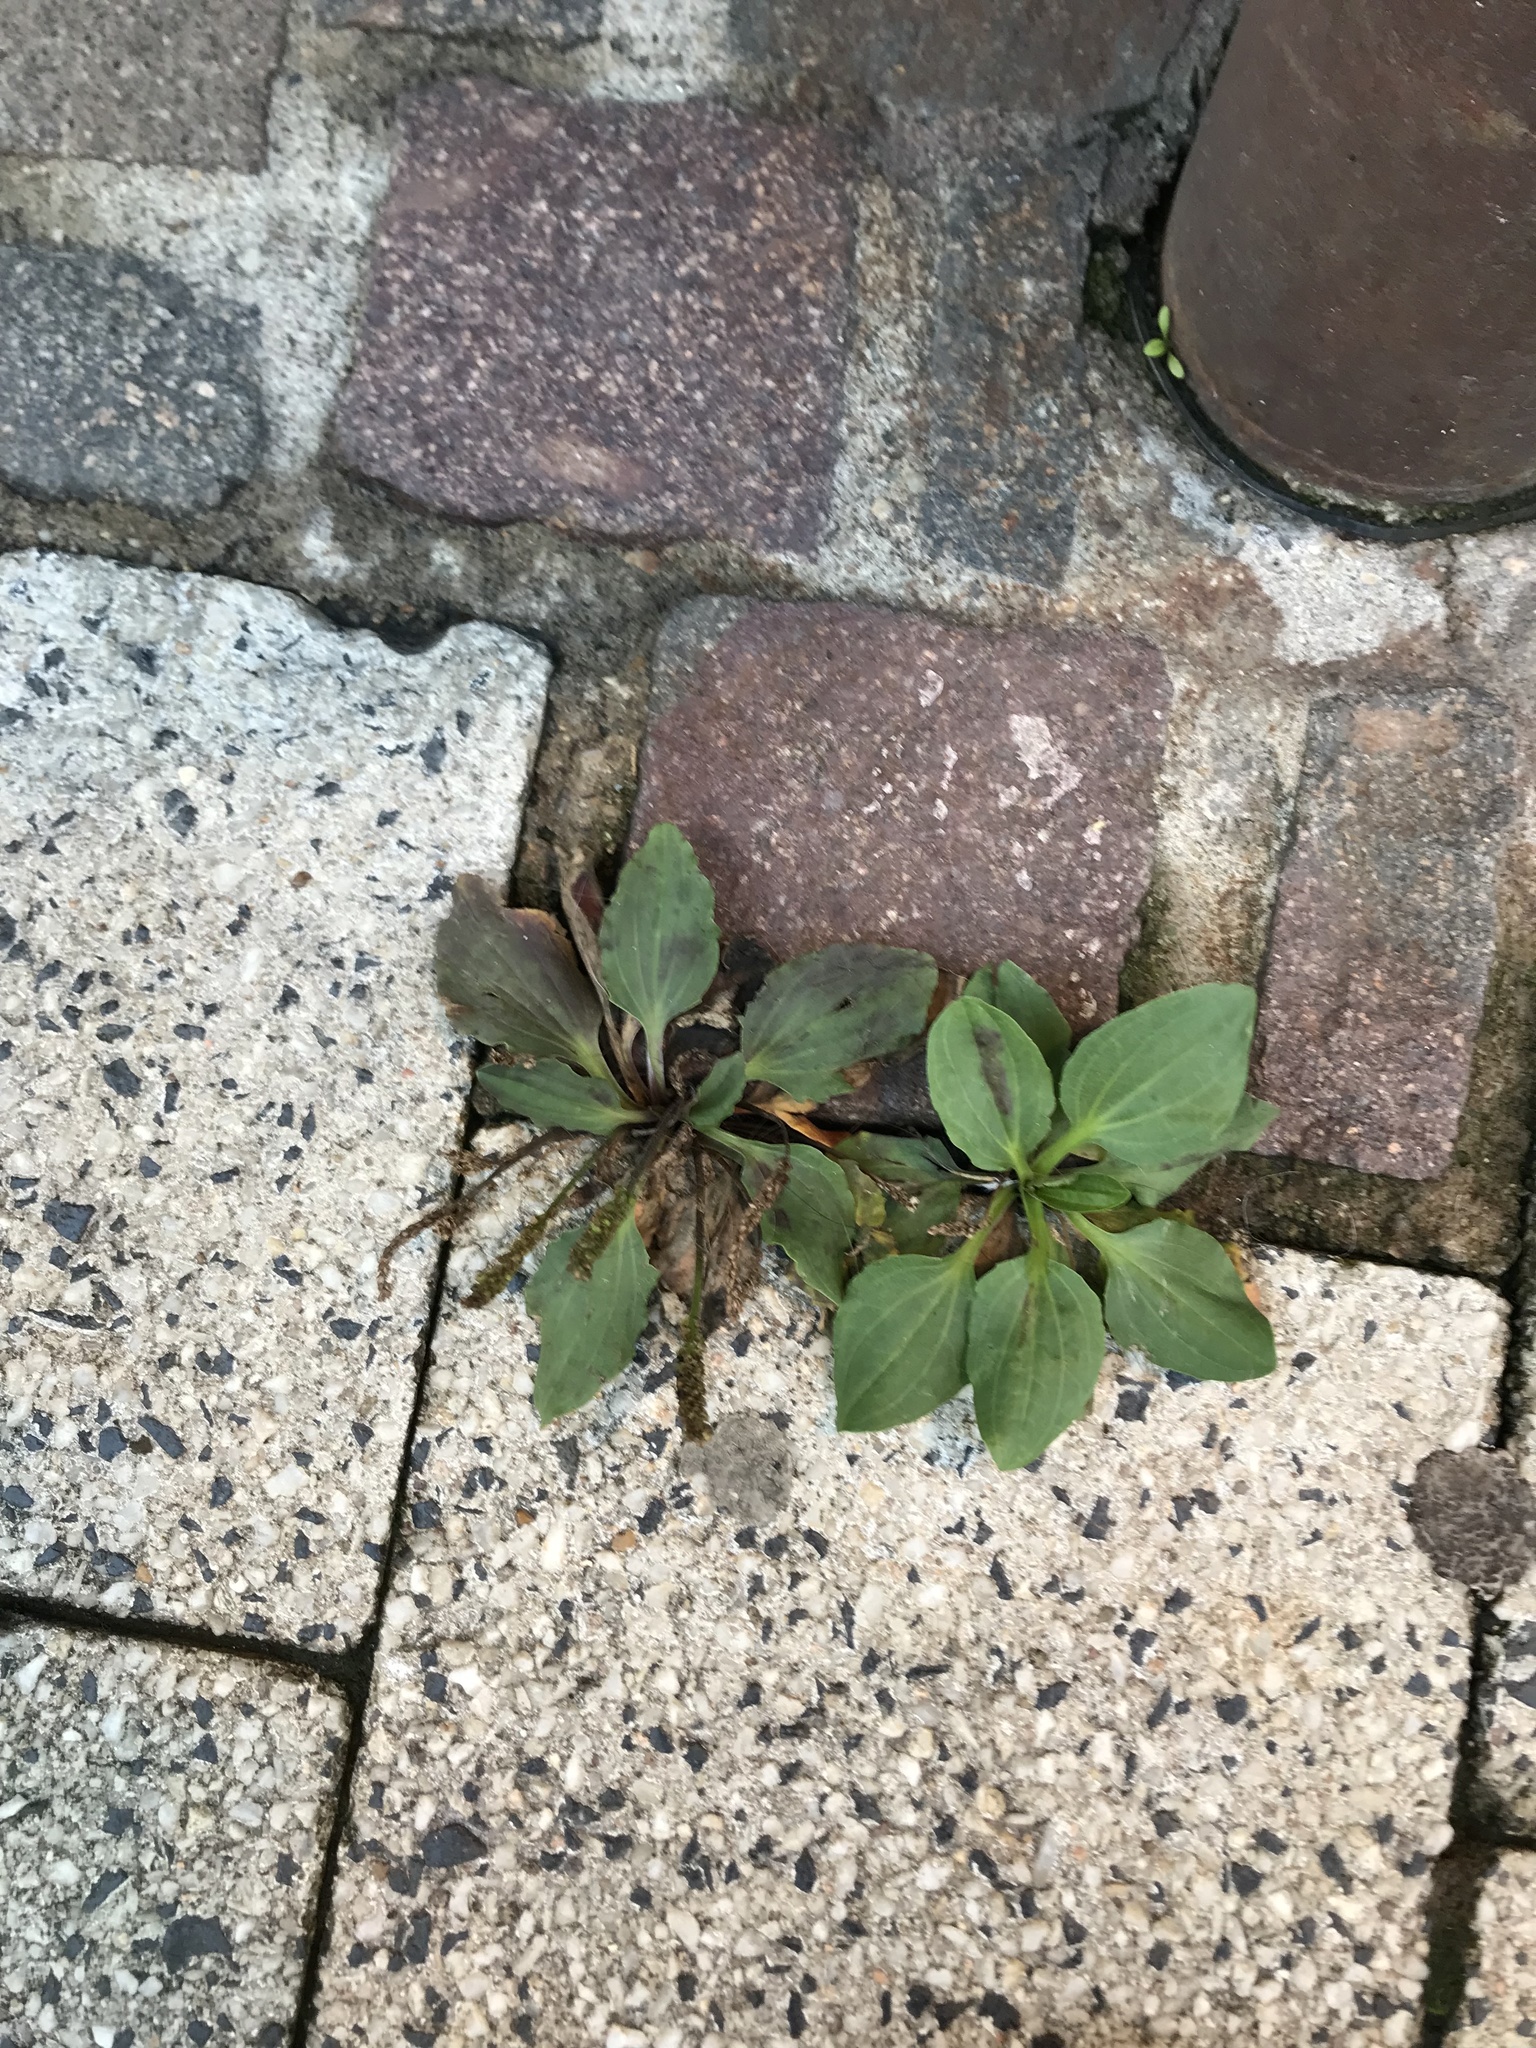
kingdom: Plantae
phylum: Tracheophyta
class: Magnoliopsida
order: Lamiales
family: Plantaginaceae
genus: Plantago
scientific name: Plantago major
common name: Common plantain
